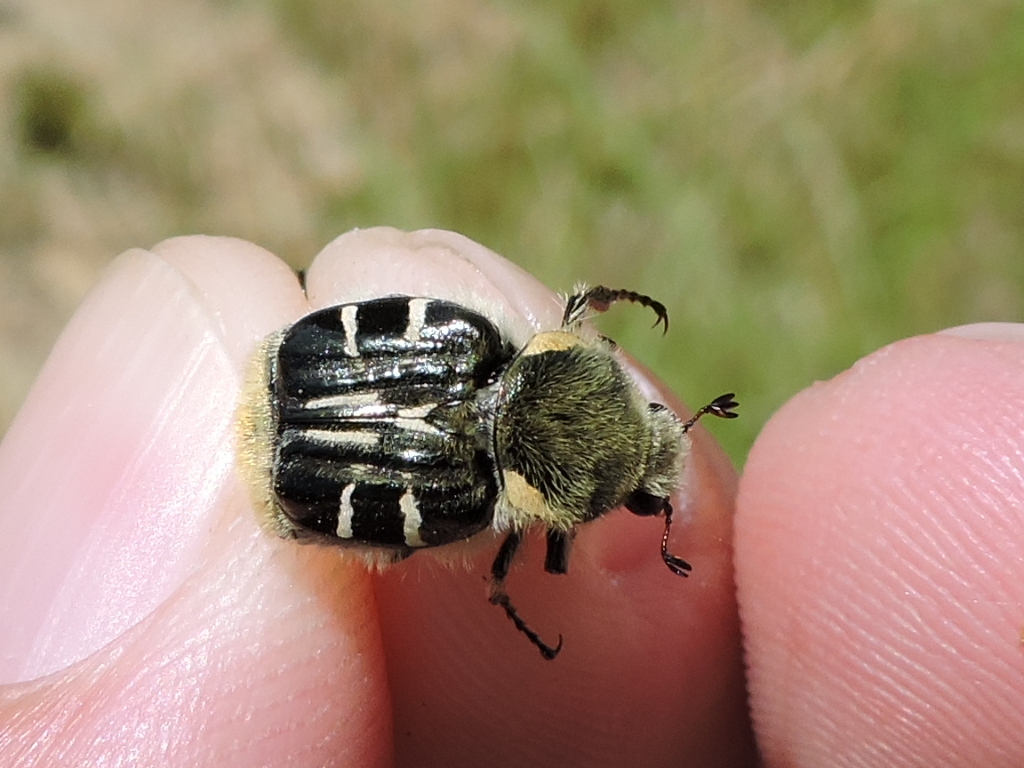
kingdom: Animalia
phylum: Arthropoda
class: Insecta
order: Coleoptera
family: Scarabaeidae
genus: Trichiotinus
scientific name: Trichiotinus texanus
